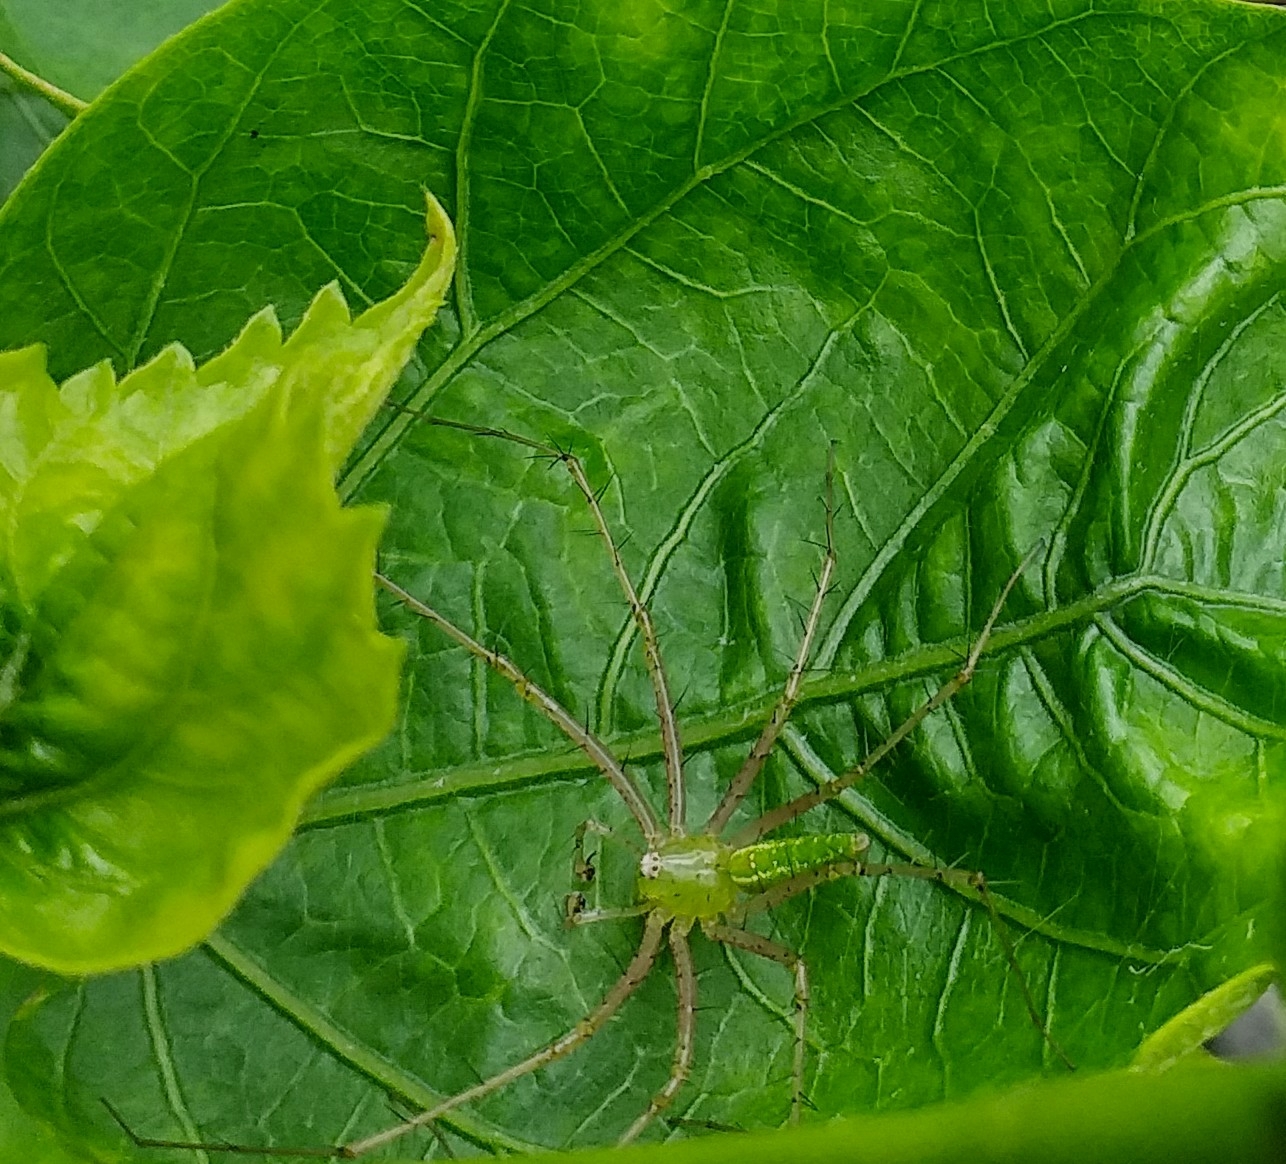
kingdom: Animalia
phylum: Arthropoda
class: Arachnida
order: Araneae
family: Oxyopidae
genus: Peucetia
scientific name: Peucetia viridana
